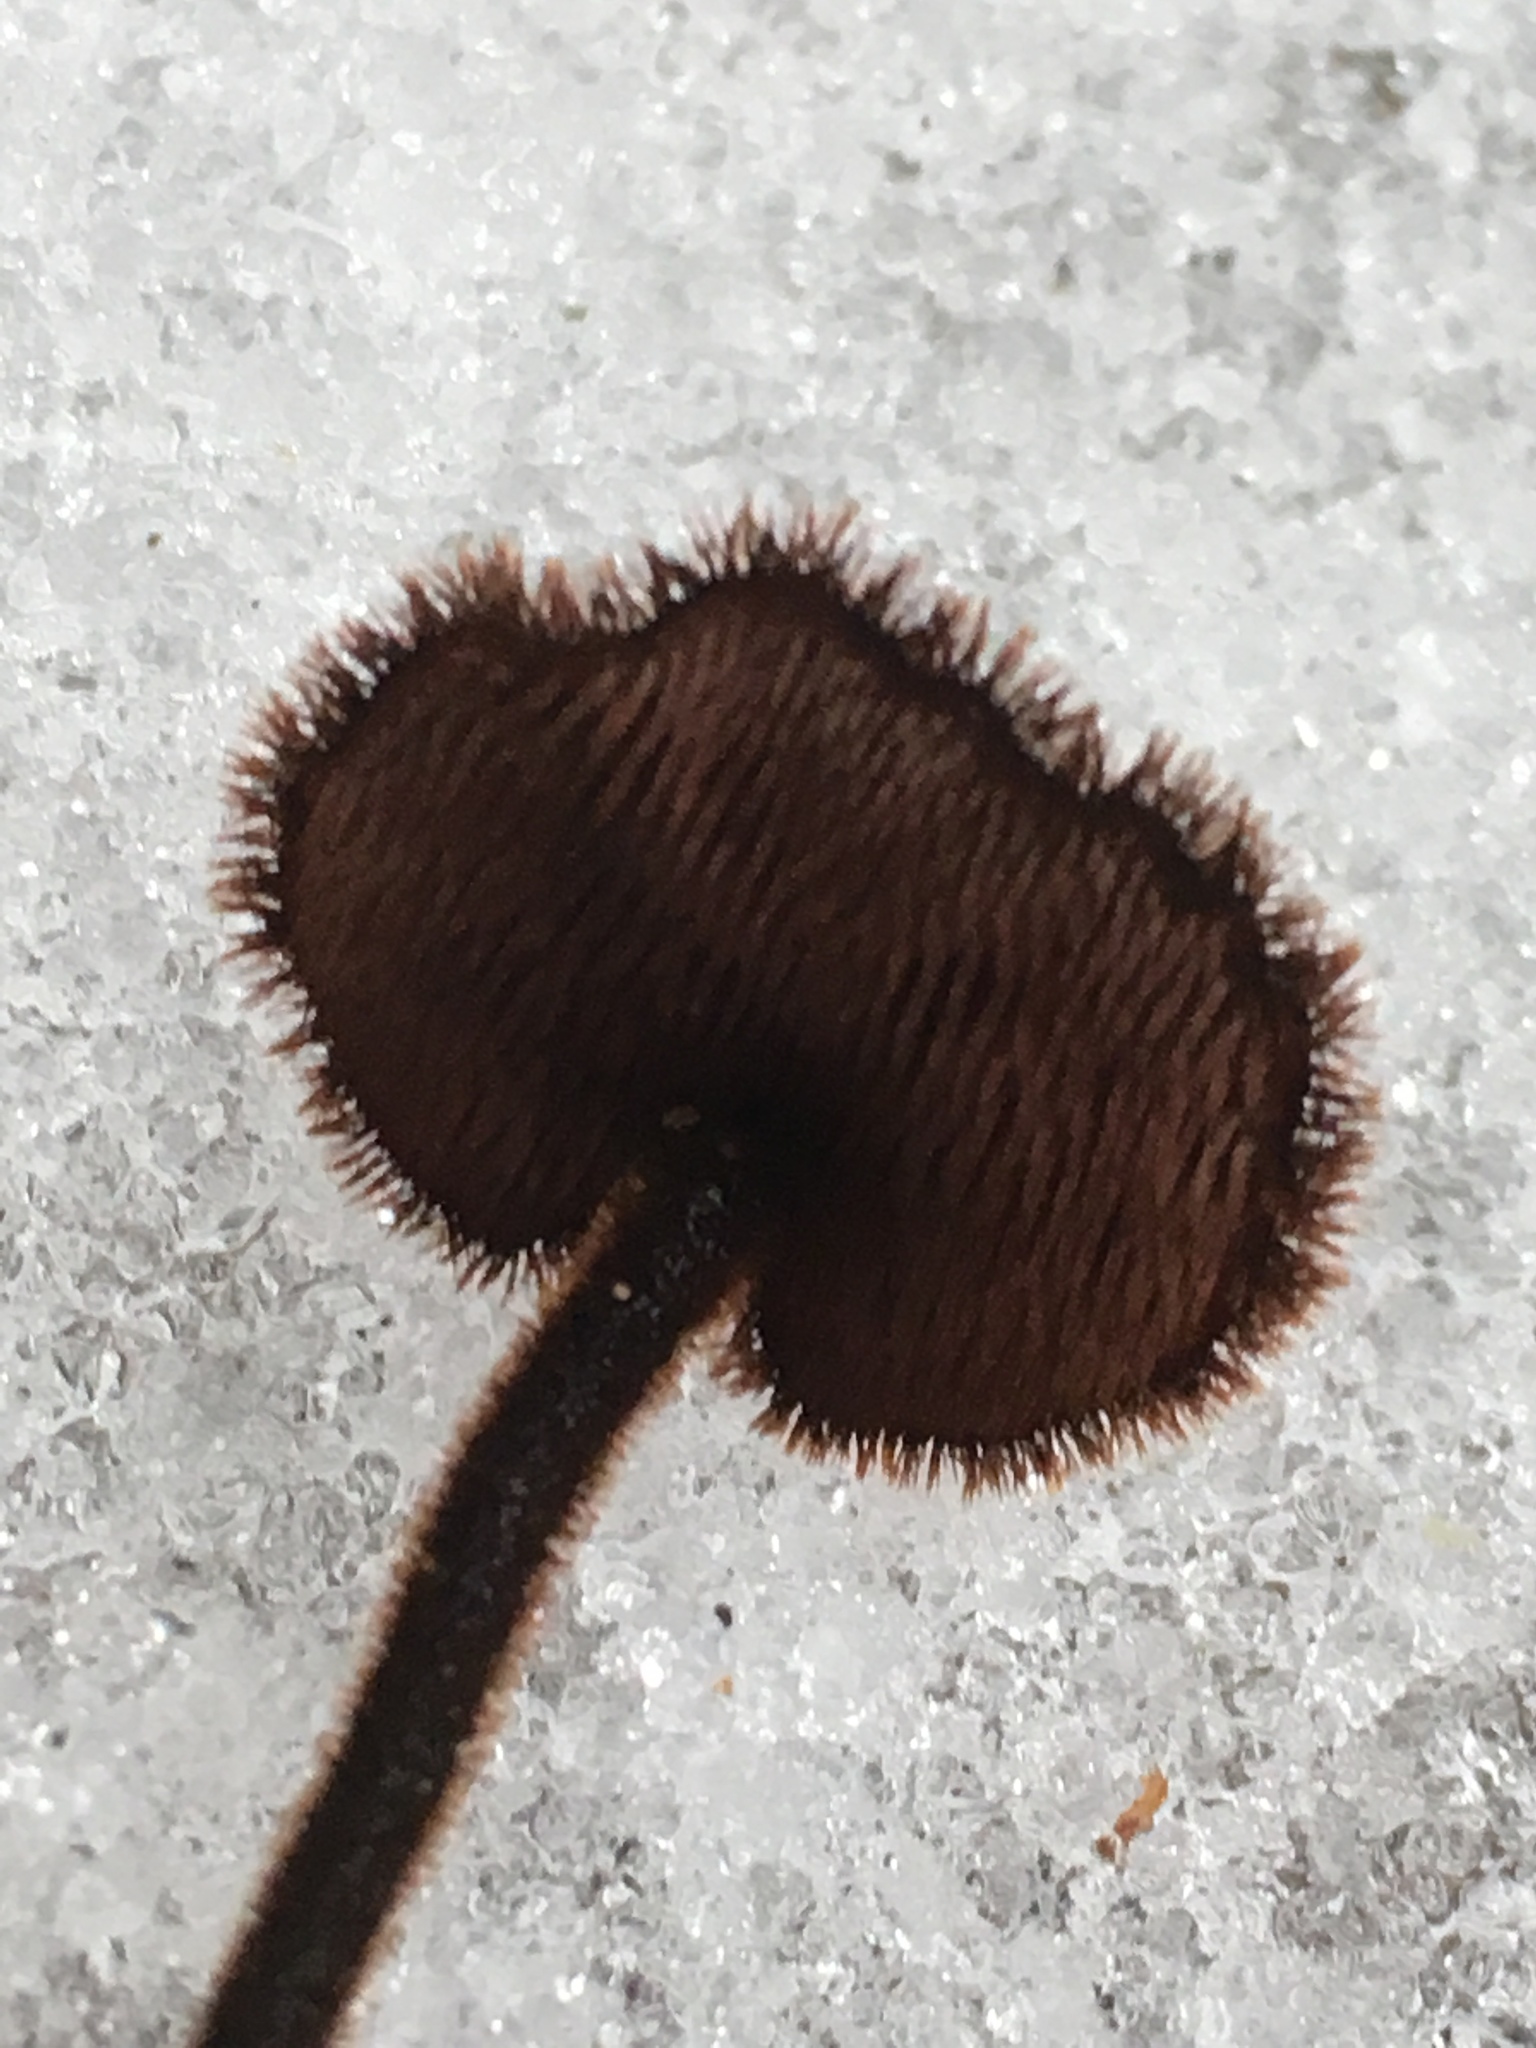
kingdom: Fungi
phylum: Basidiomycota
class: Agaricomycetes
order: Russulales
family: Auriscalpiaceae
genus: Auriscalpium
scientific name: Auriscalpium vulgare
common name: Earpick fungus
